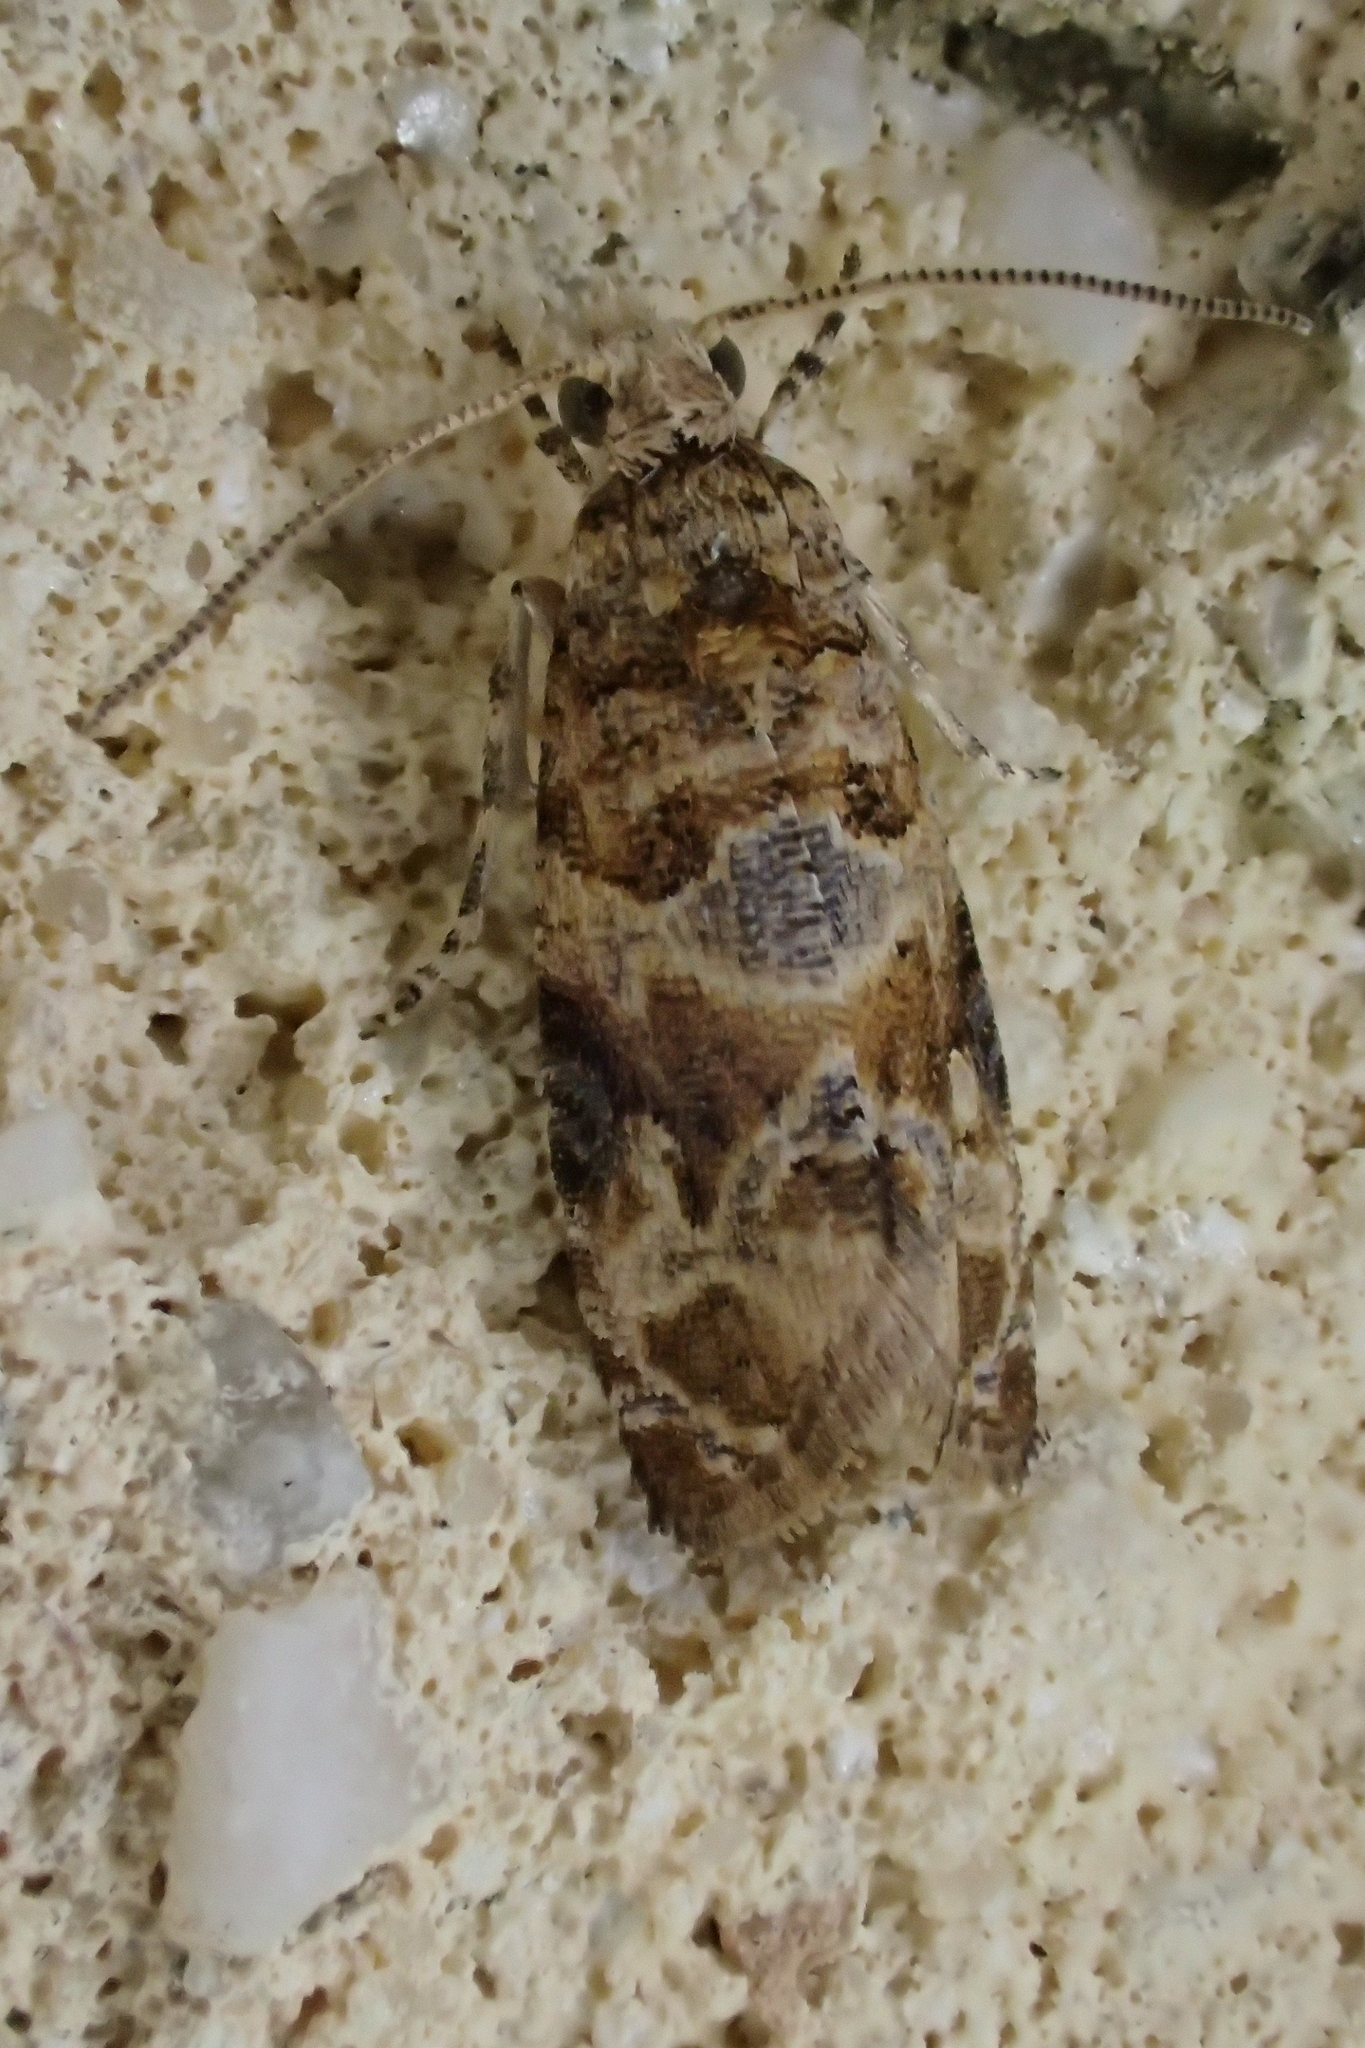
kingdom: Animalia
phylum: Arthropoda
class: Insecta
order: Lepidoptera
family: Tortricidae
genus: Lobesia
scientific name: Lobesia botrana
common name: European vine moth
